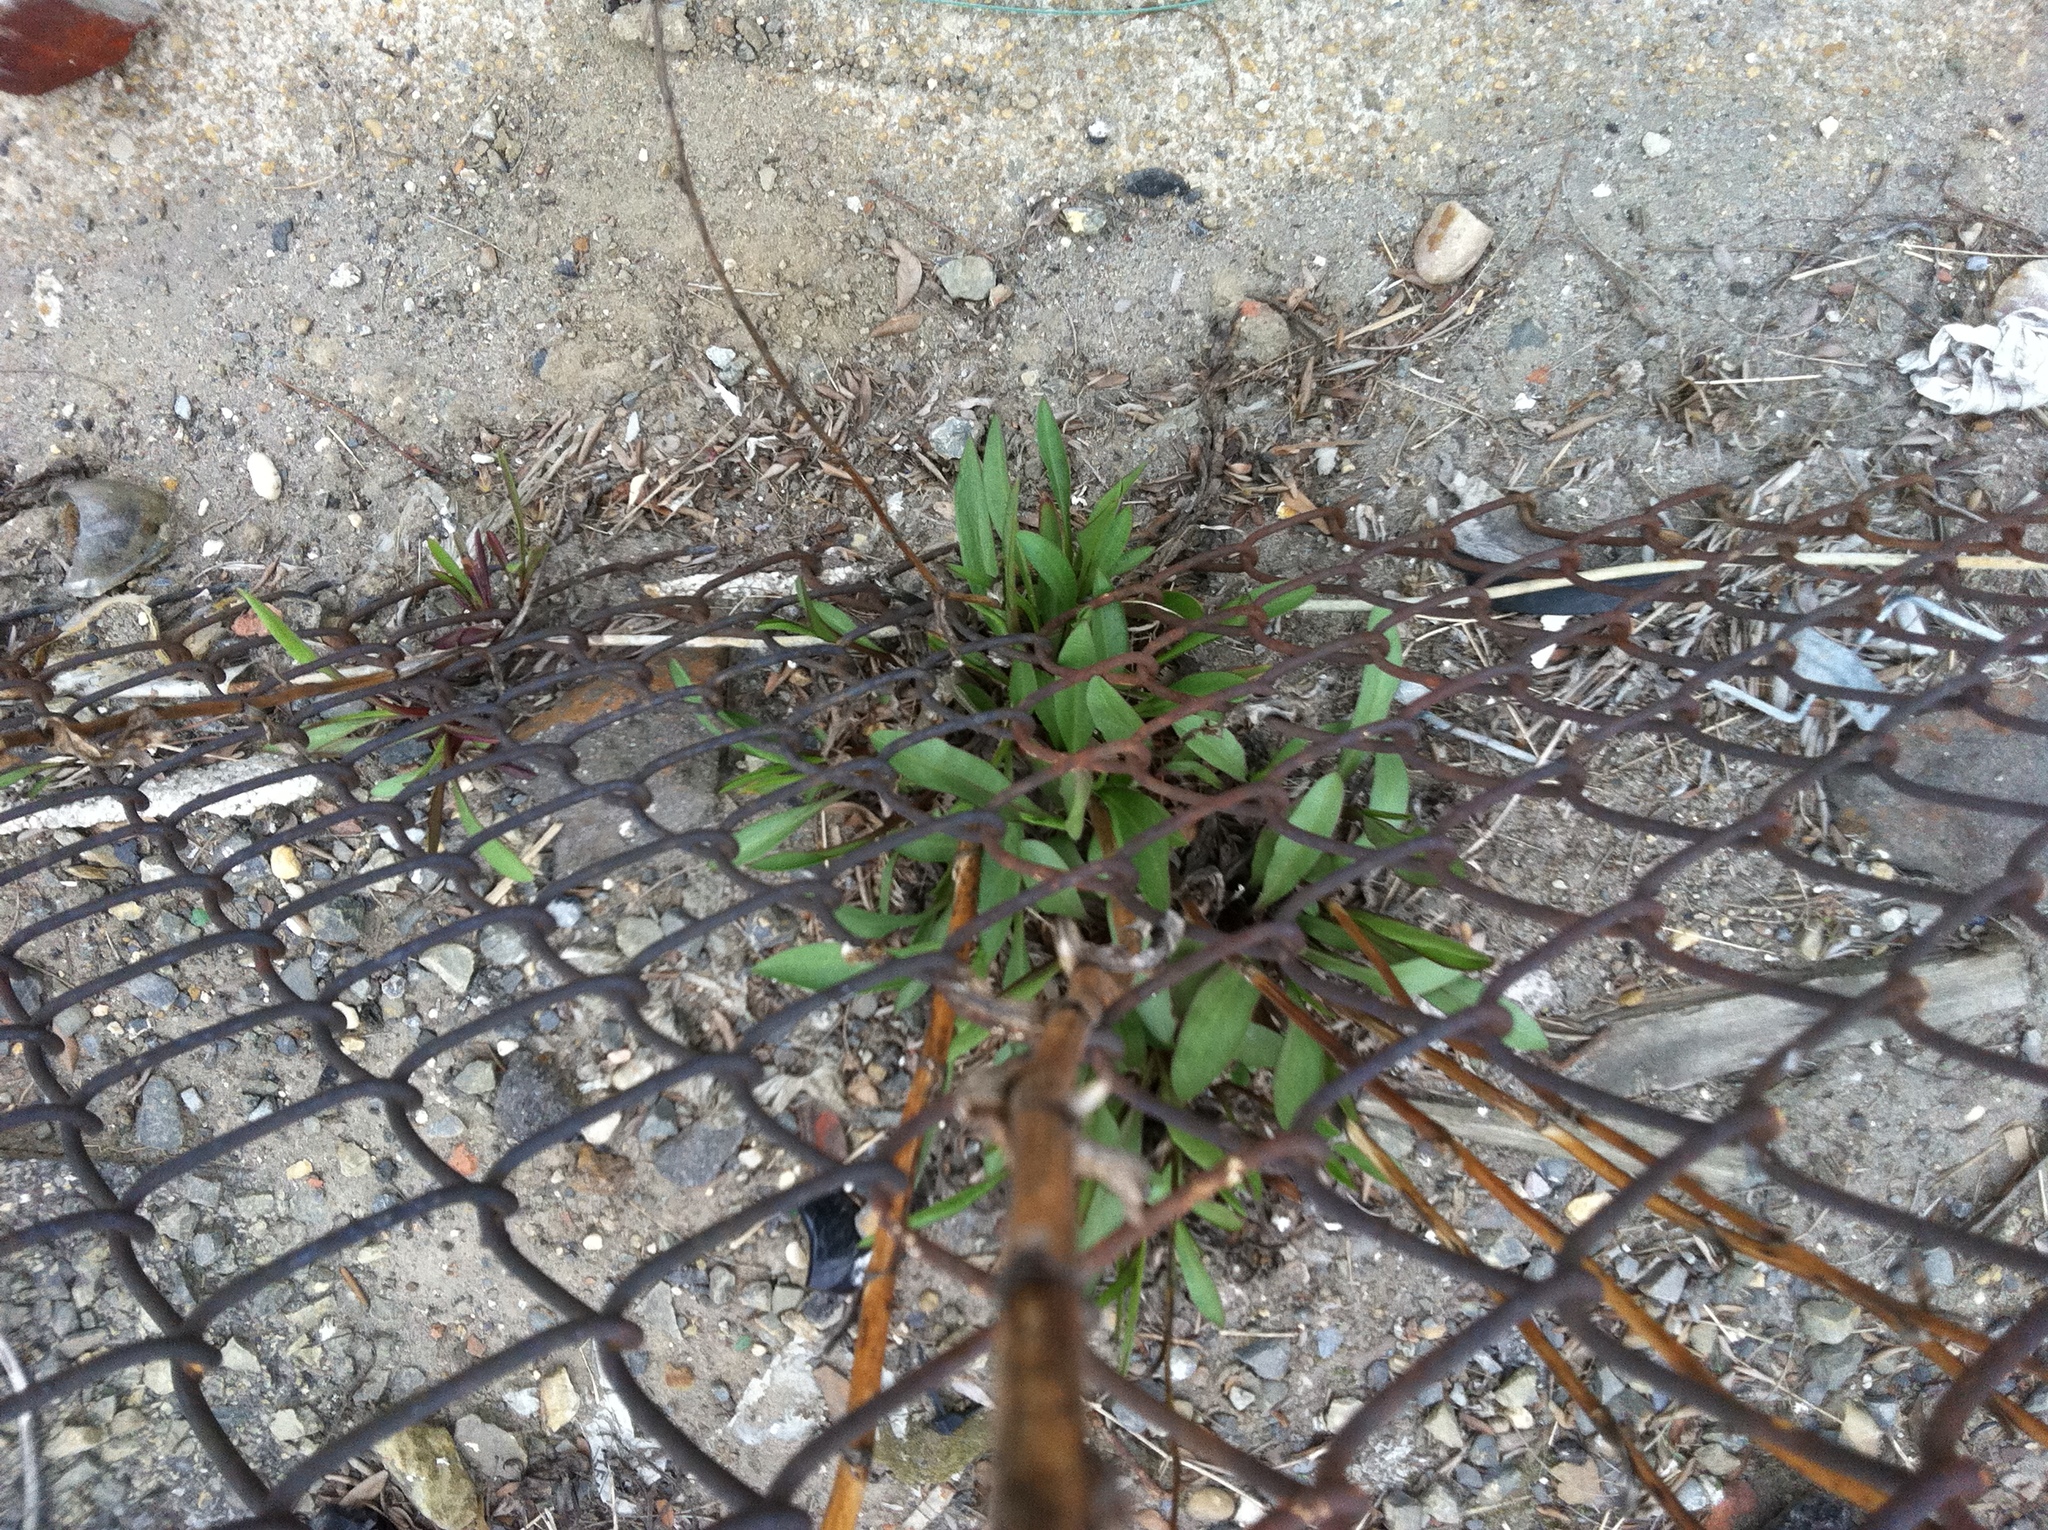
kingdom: Plantae
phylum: Tracheophyta
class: Magnoliopsida
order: Asterales
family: Asteraceae
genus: Solidago
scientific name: Solidago sempervirens
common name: Salt-marsh goldenrod
